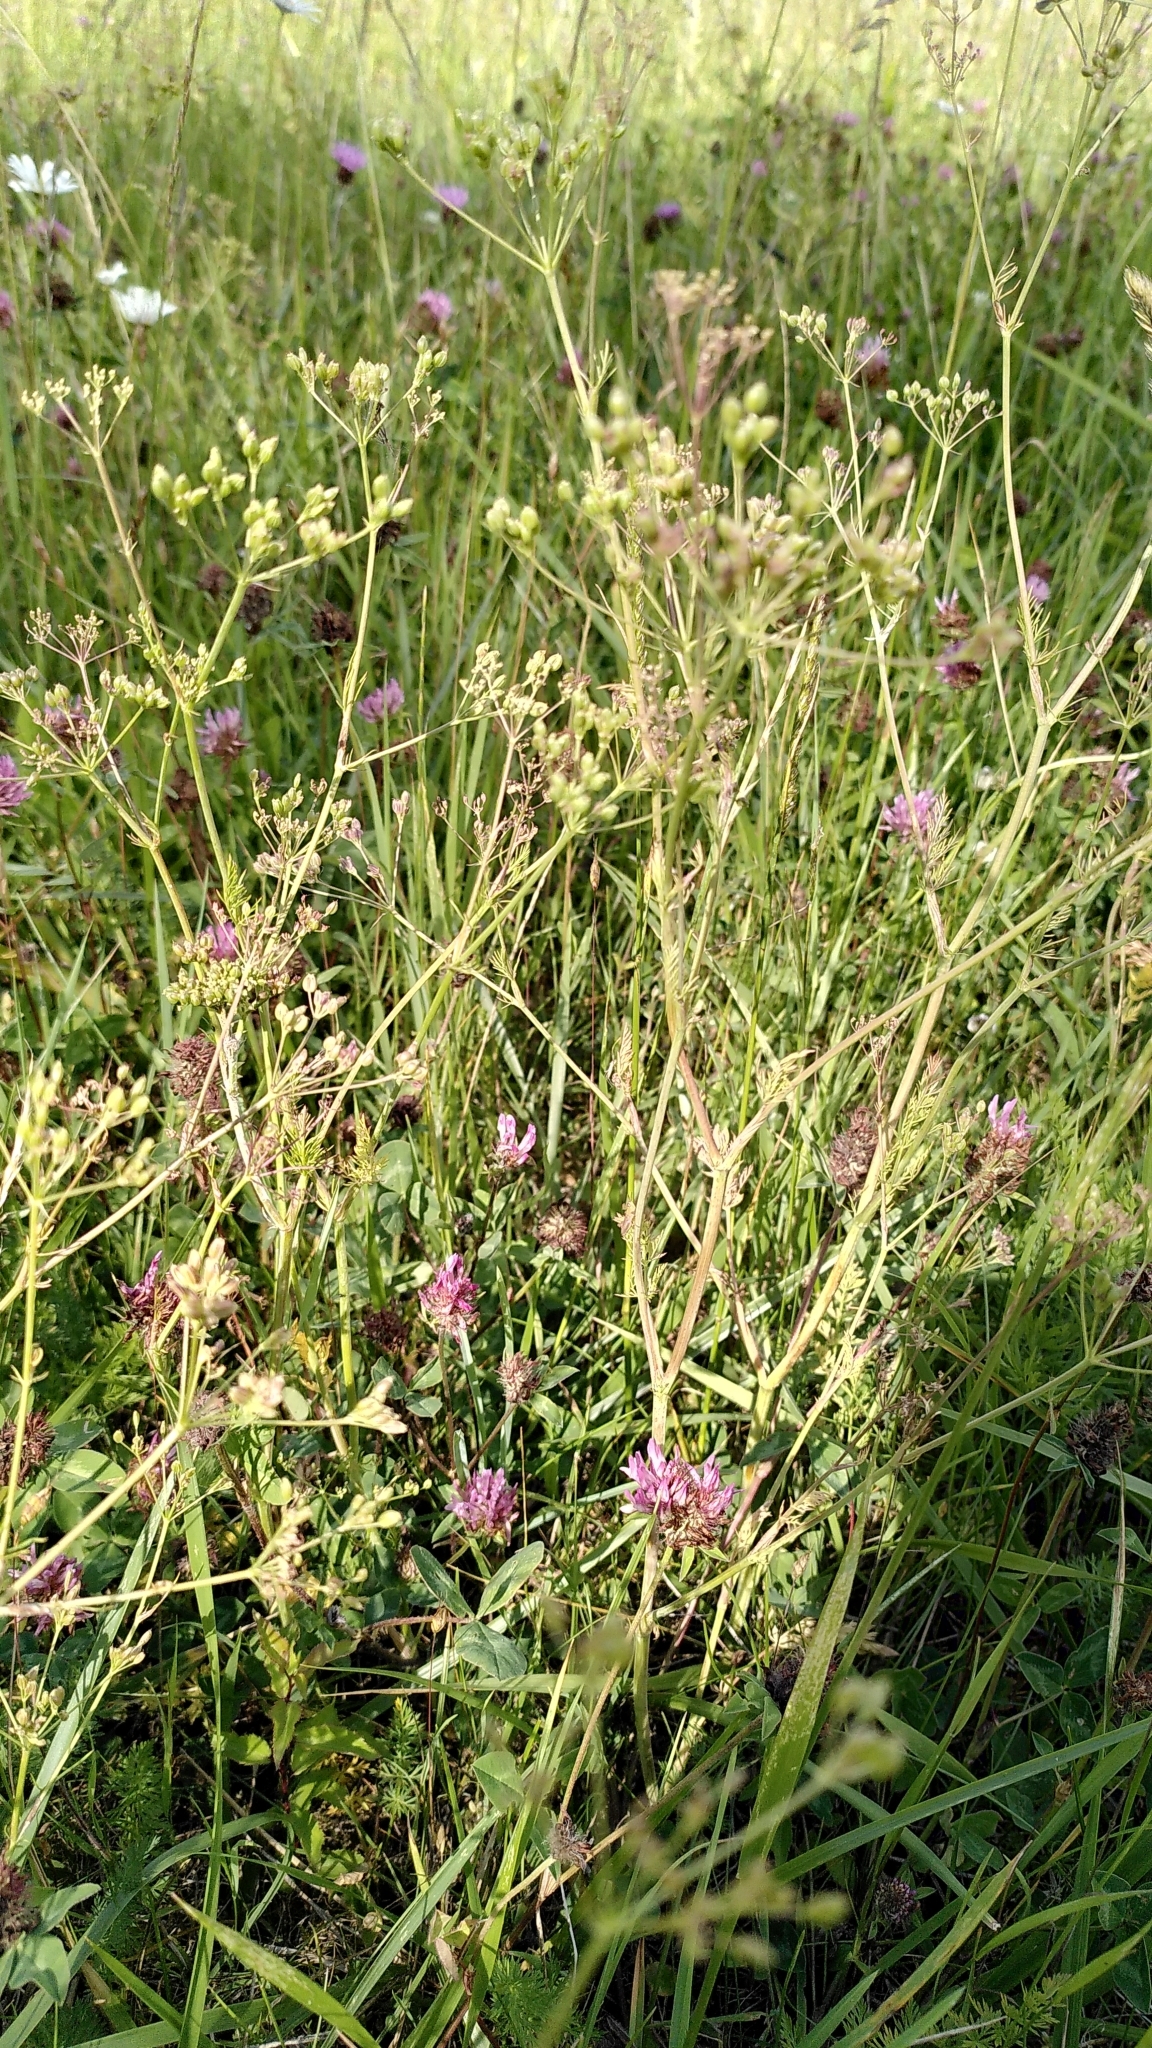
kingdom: Plantae
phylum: Tracheophyta
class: Magnoliopsida
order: Apiales
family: Apiaceae
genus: Carum
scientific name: Carum carvi
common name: Caraway
